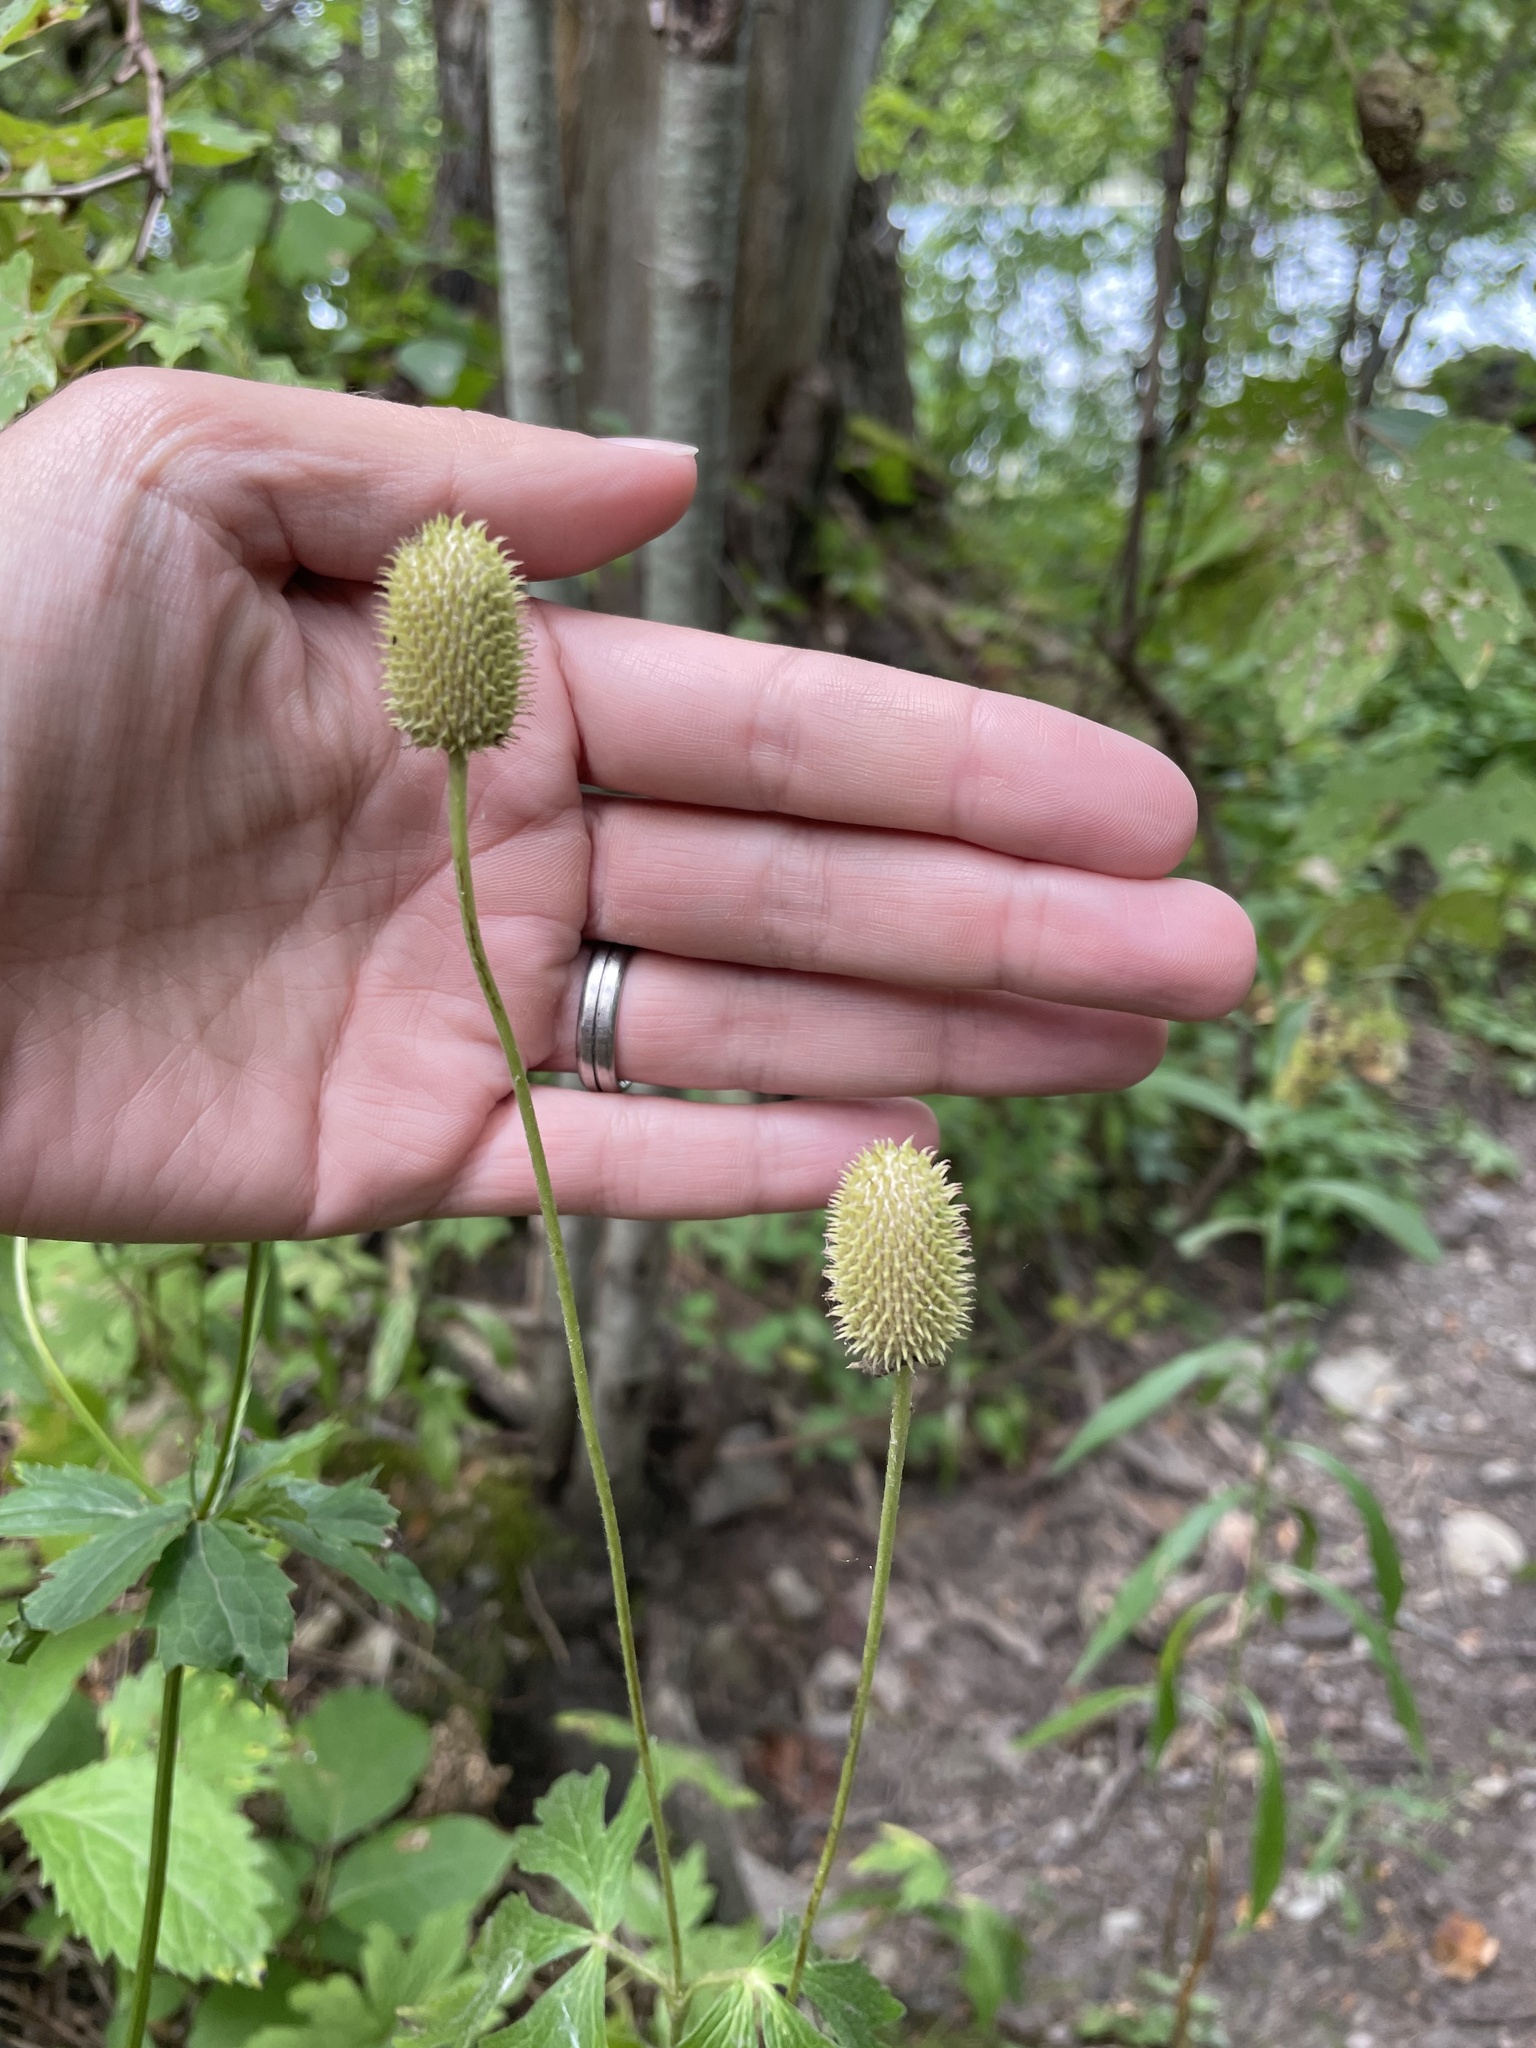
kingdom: Plantae
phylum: Tracheophyta
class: Magnoliopsida
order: Ranunculales
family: Ranunculaceae
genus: Anemone
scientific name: Anemone virginiana
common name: Tall anemone
